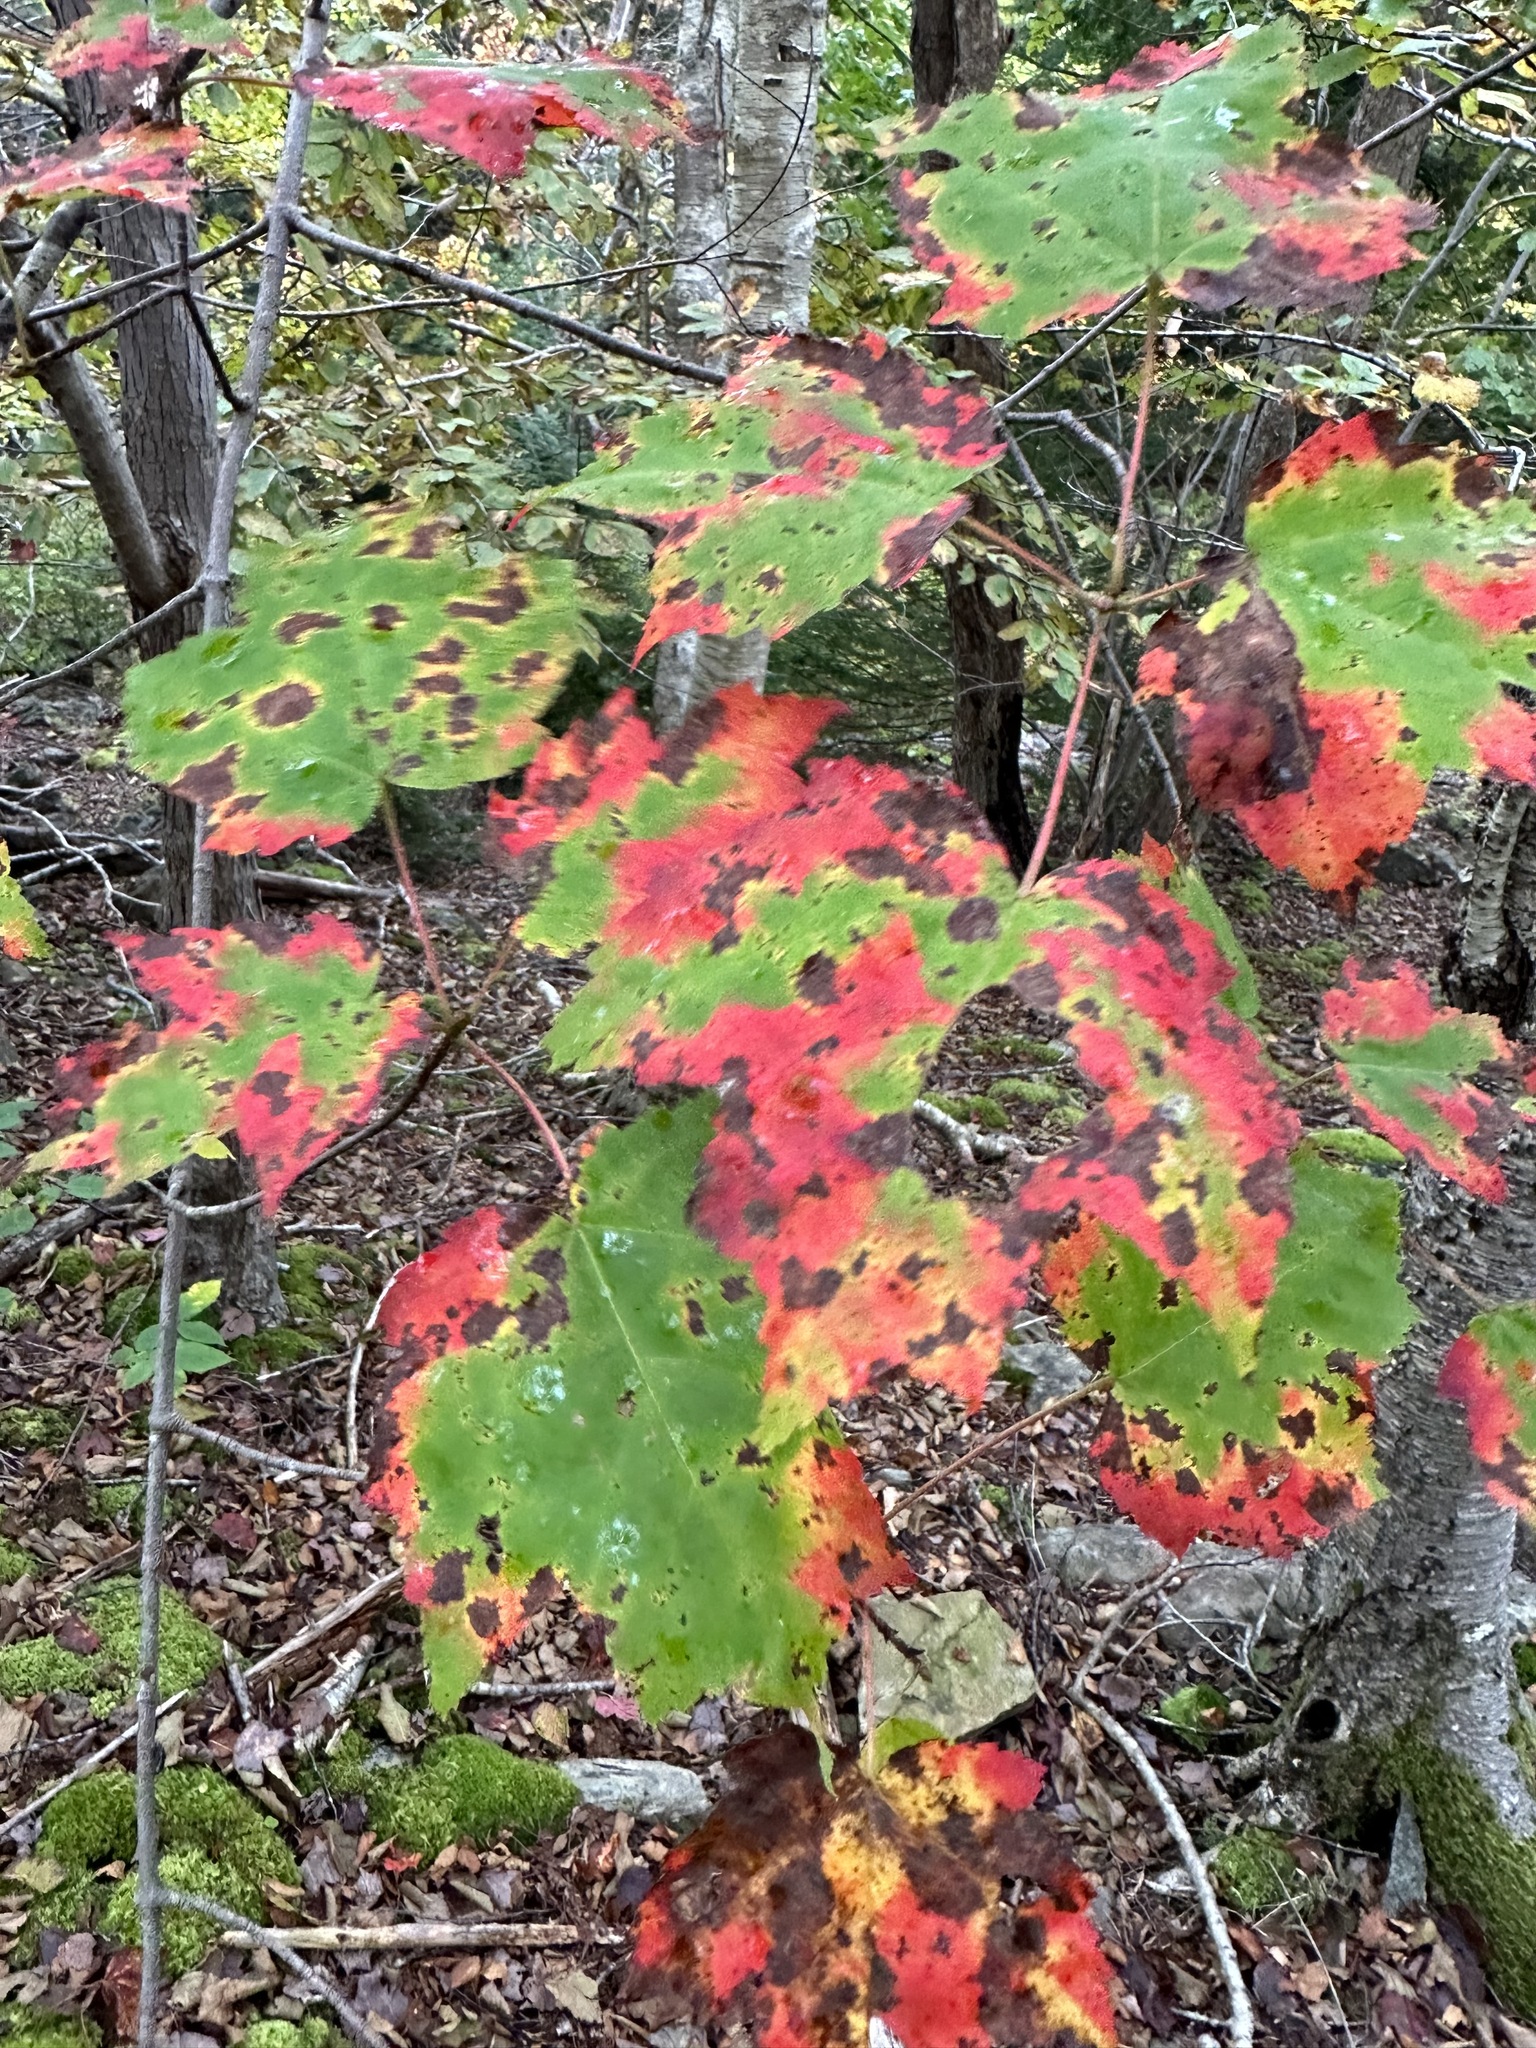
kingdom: Plantae
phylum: Tracheophyta
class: Magnoliopsida
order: Sapindales
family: Sapindaceae
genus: Acer
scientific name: Acer rubrum
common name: Red maple
